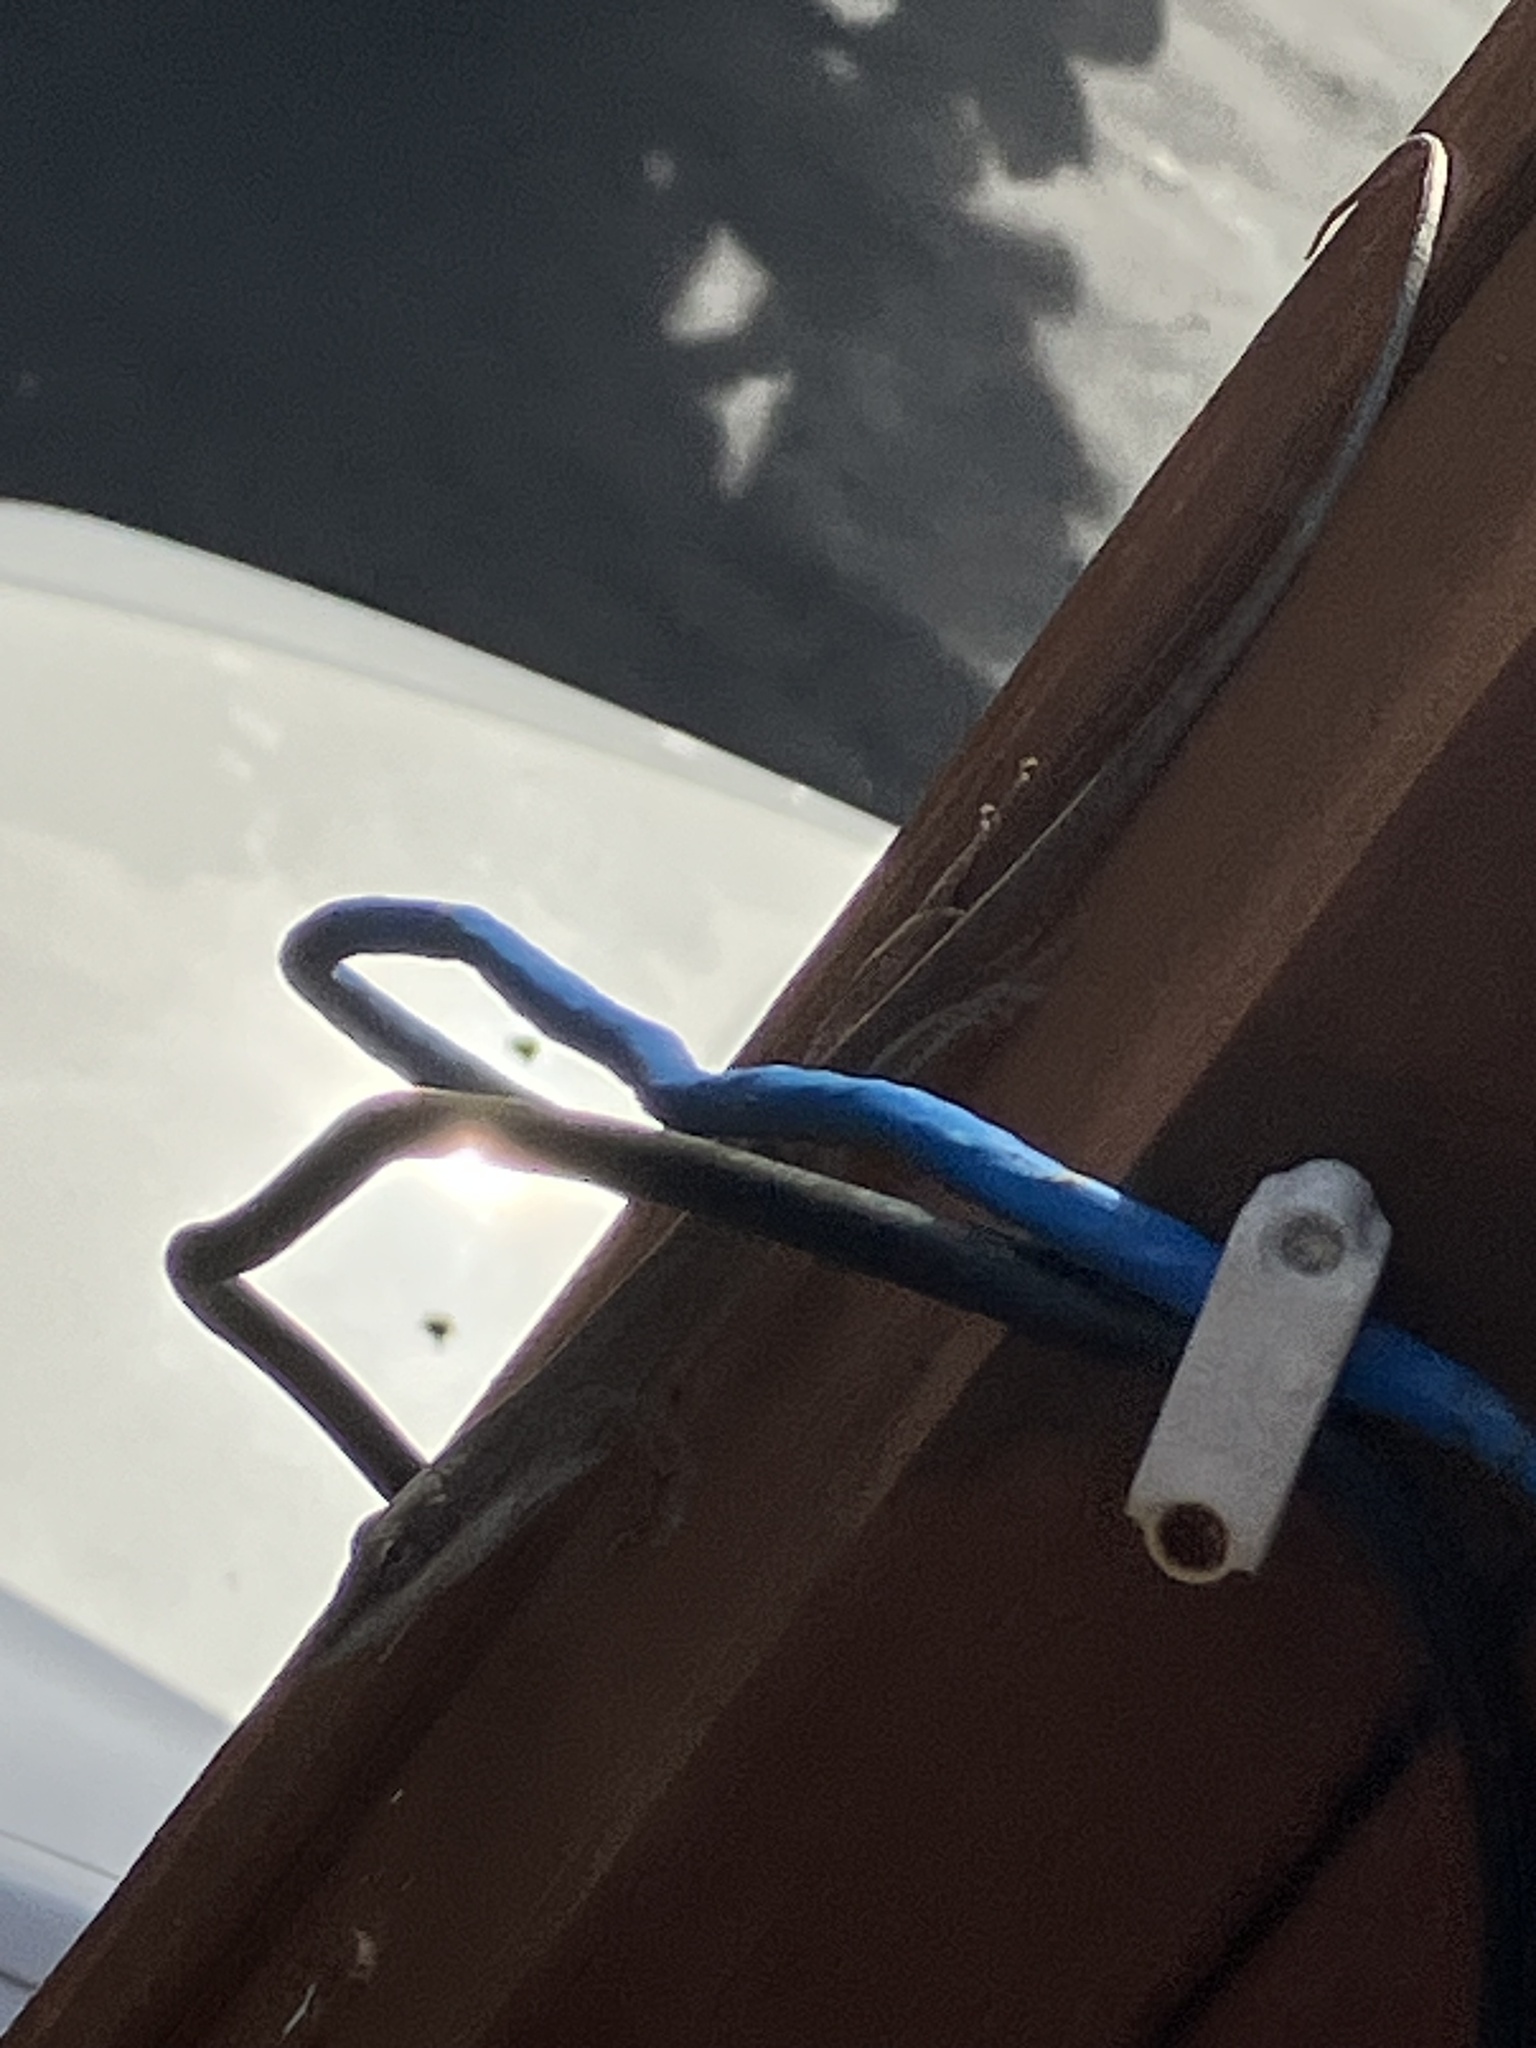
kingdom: Animalia
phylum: Chordata
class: Squamata
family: Dactyloidae
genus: Anolis
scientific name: Anolis carolinensis
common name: Green anole
